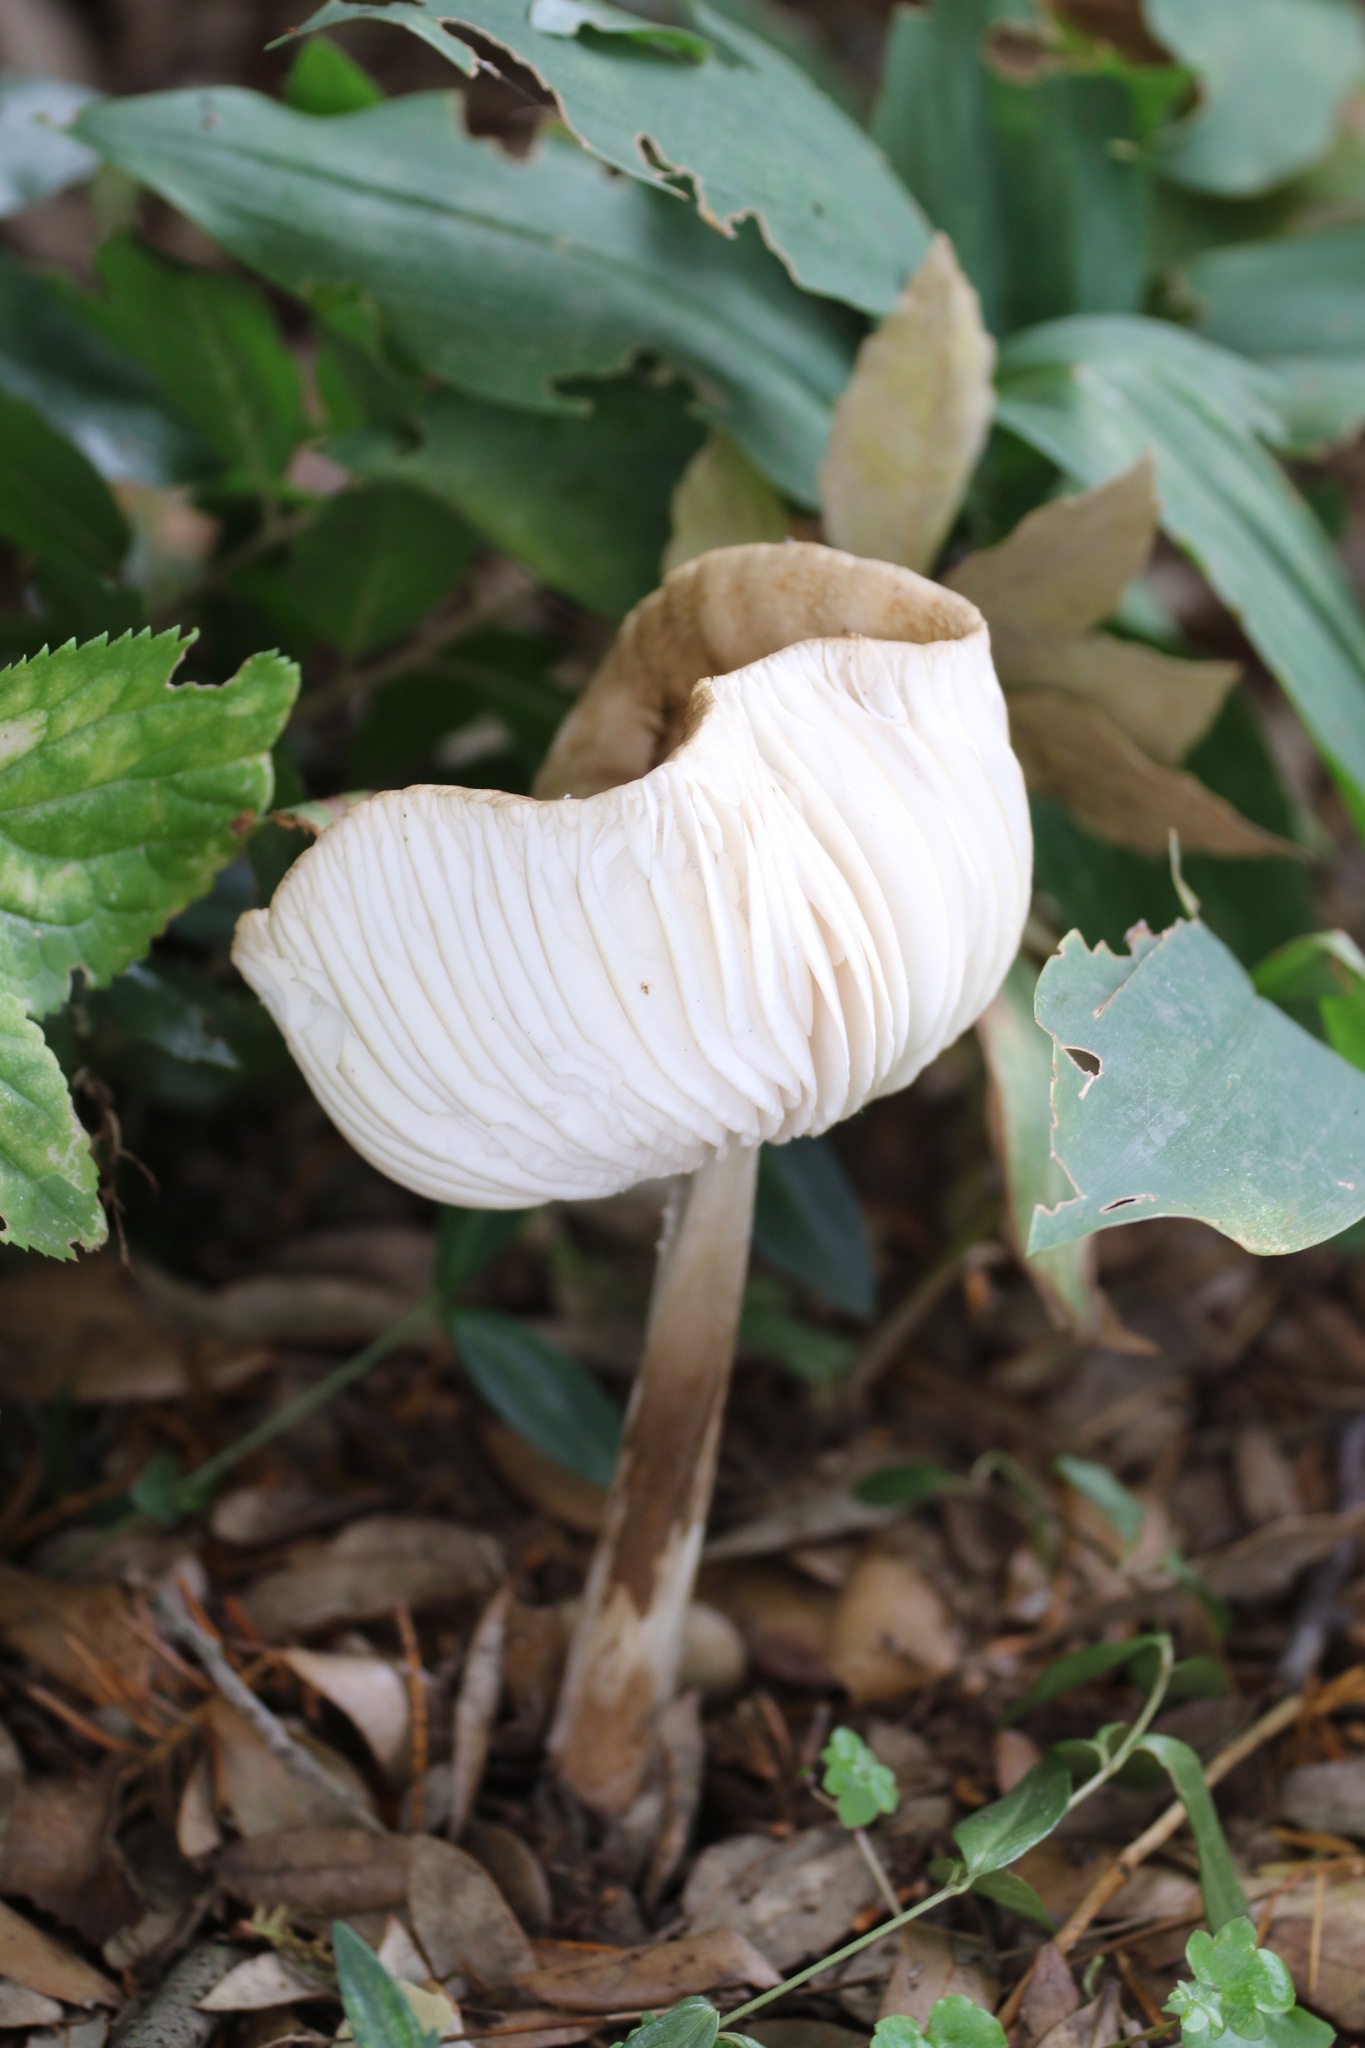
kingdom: Fungi
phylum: Basidiomycota
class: Agaricomycetes
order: Agaricales
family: Physalacriaceae
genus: Hymenopellis
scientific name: Hymenopellis radicata
